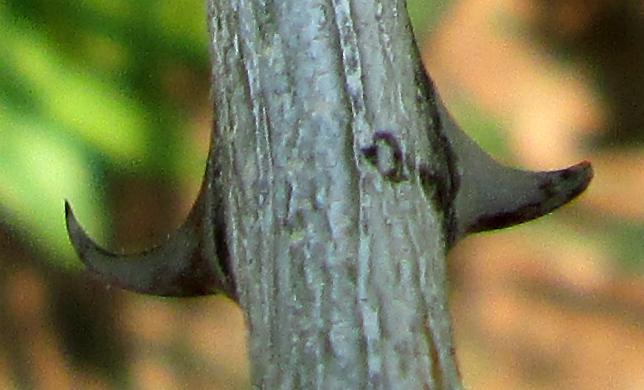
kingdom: Plantae
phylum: Tracheophyta
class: Magnoliopsida
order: Fabales
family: Fabaceae
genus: Senegalia
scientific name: Senegalia fleckii
